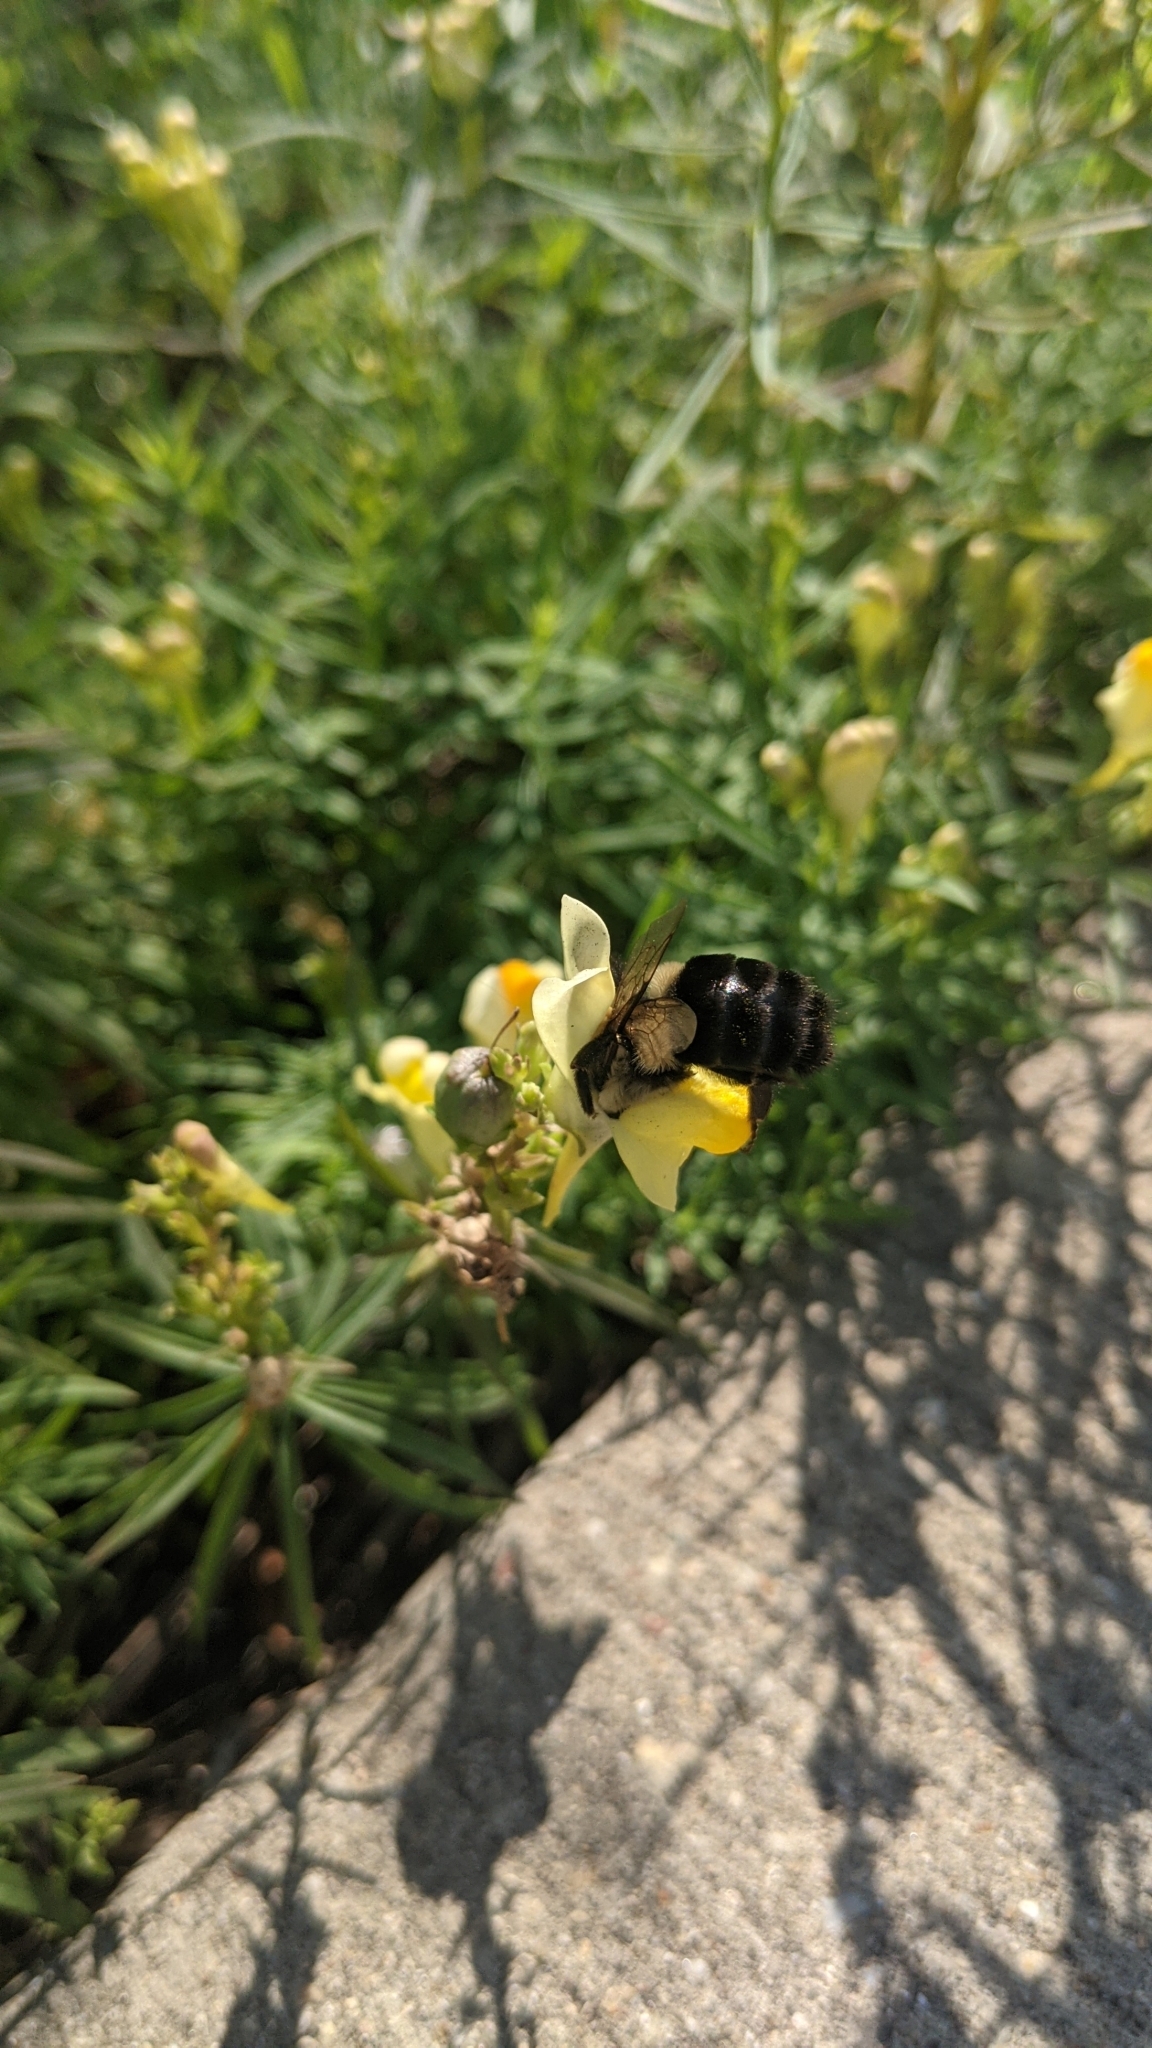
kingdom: Animalia
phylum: Arthropoda
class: Insecta
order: Hymenoptera
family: Apidae
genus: Bombus
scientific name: Bombus impatiens
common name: Common eastern bumble bee
